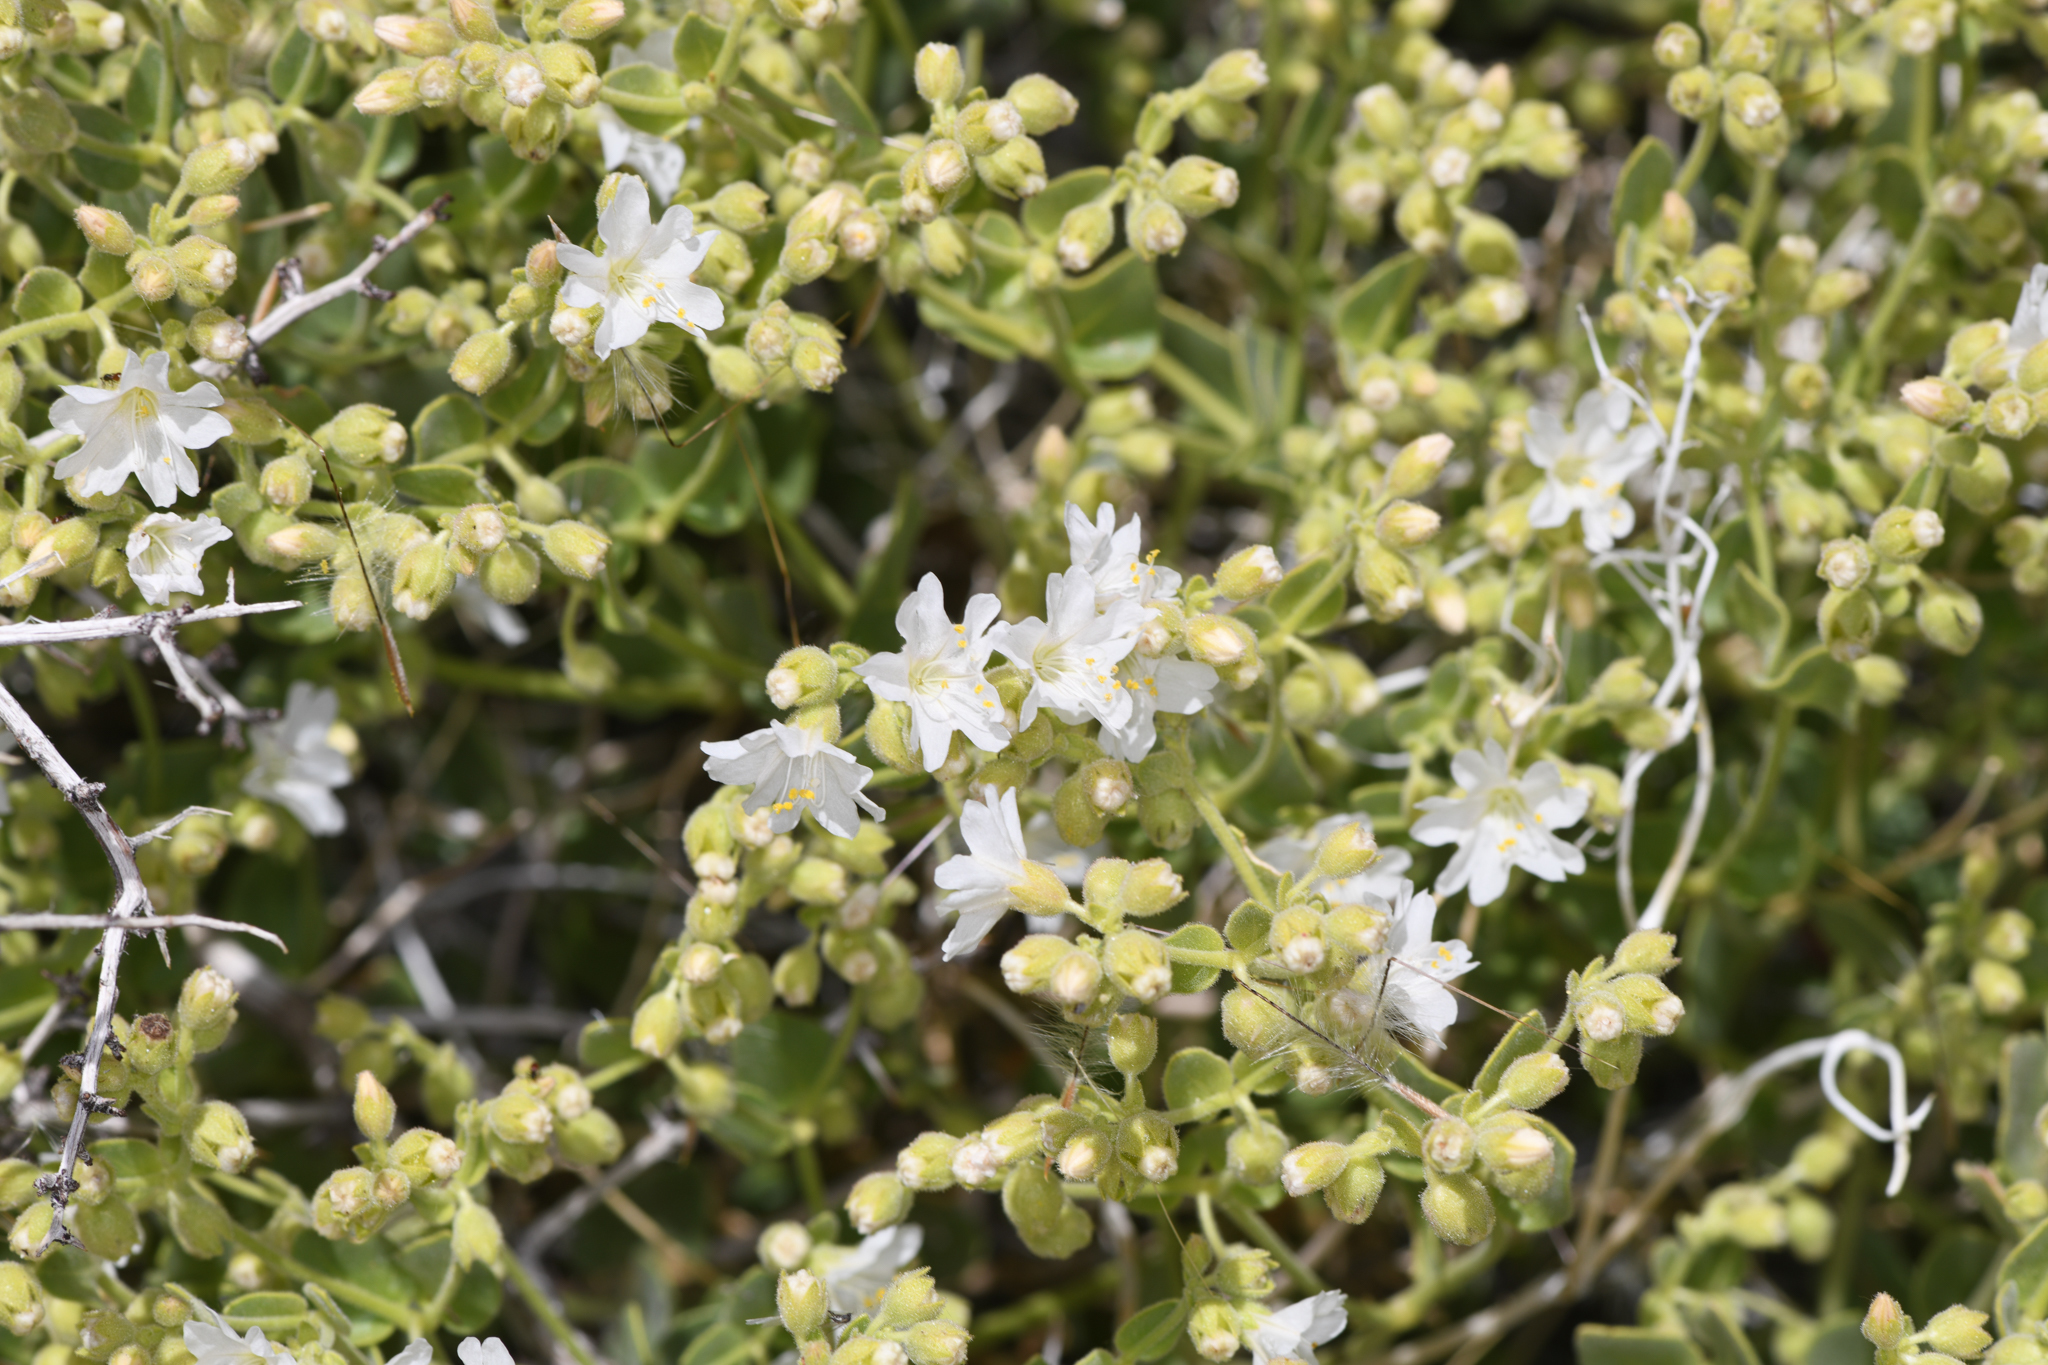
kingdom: Plantae
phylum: Tracheophyta
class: Magnoliopsida
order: Caryophyllales
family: Nyctaginaceae
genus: Mirabilis
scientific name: Mirabilis laevis
